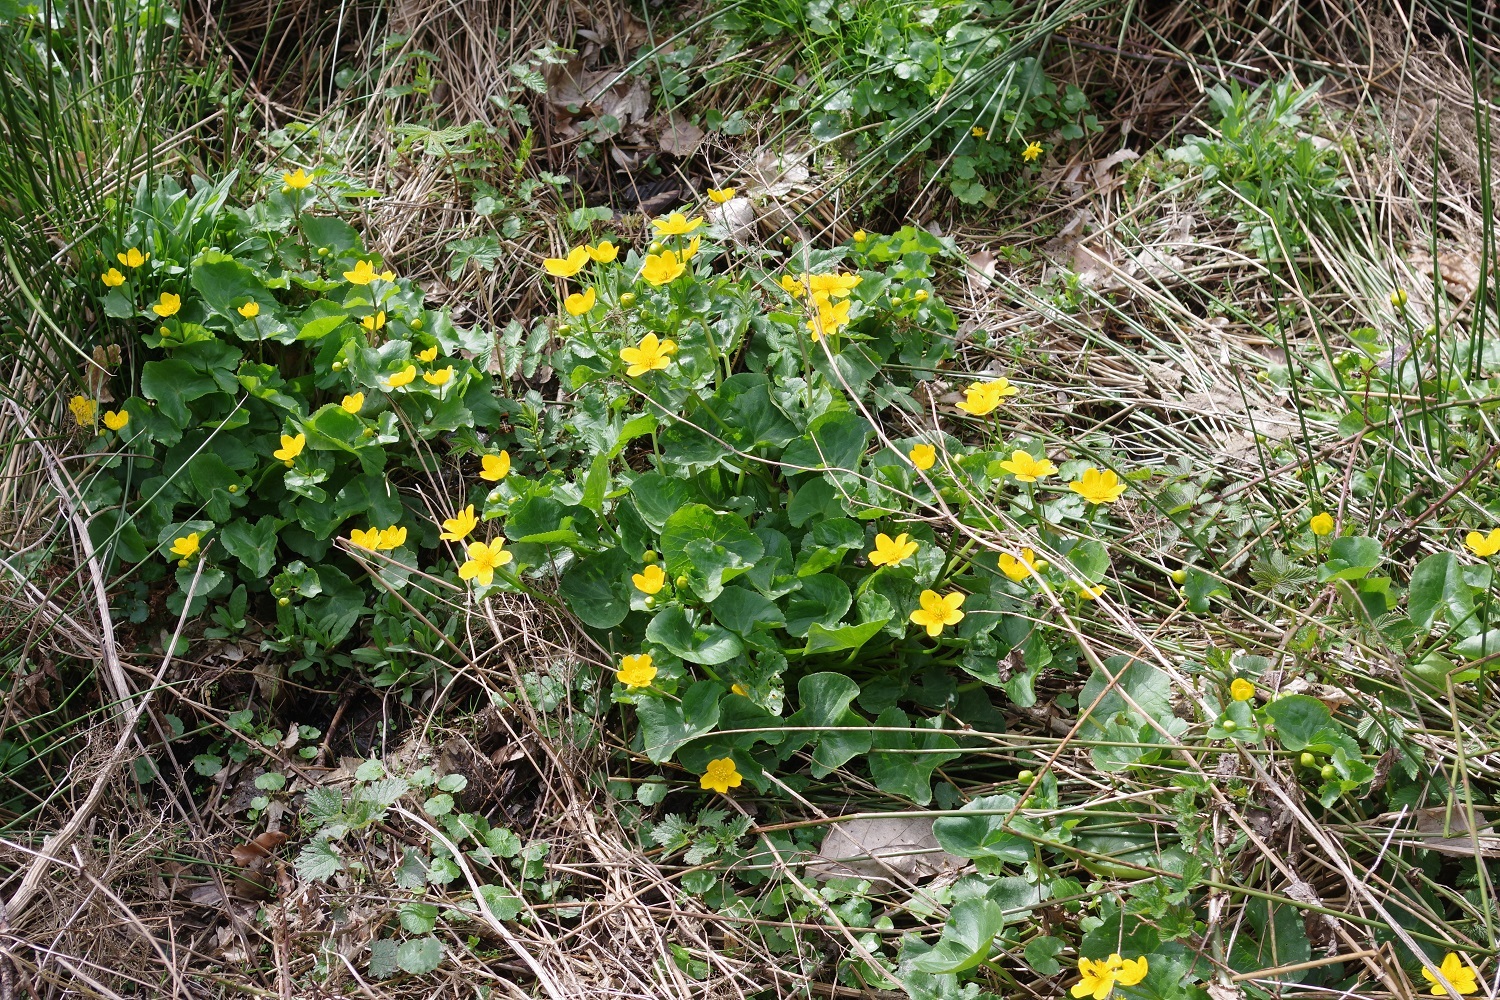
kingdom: Plantae
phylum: Tracheophyta
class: Magnoliopsida
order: Ranunculales
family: Ranunculaceae
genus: Caltha
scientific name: Caltha palustris
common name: Marsh marigold
